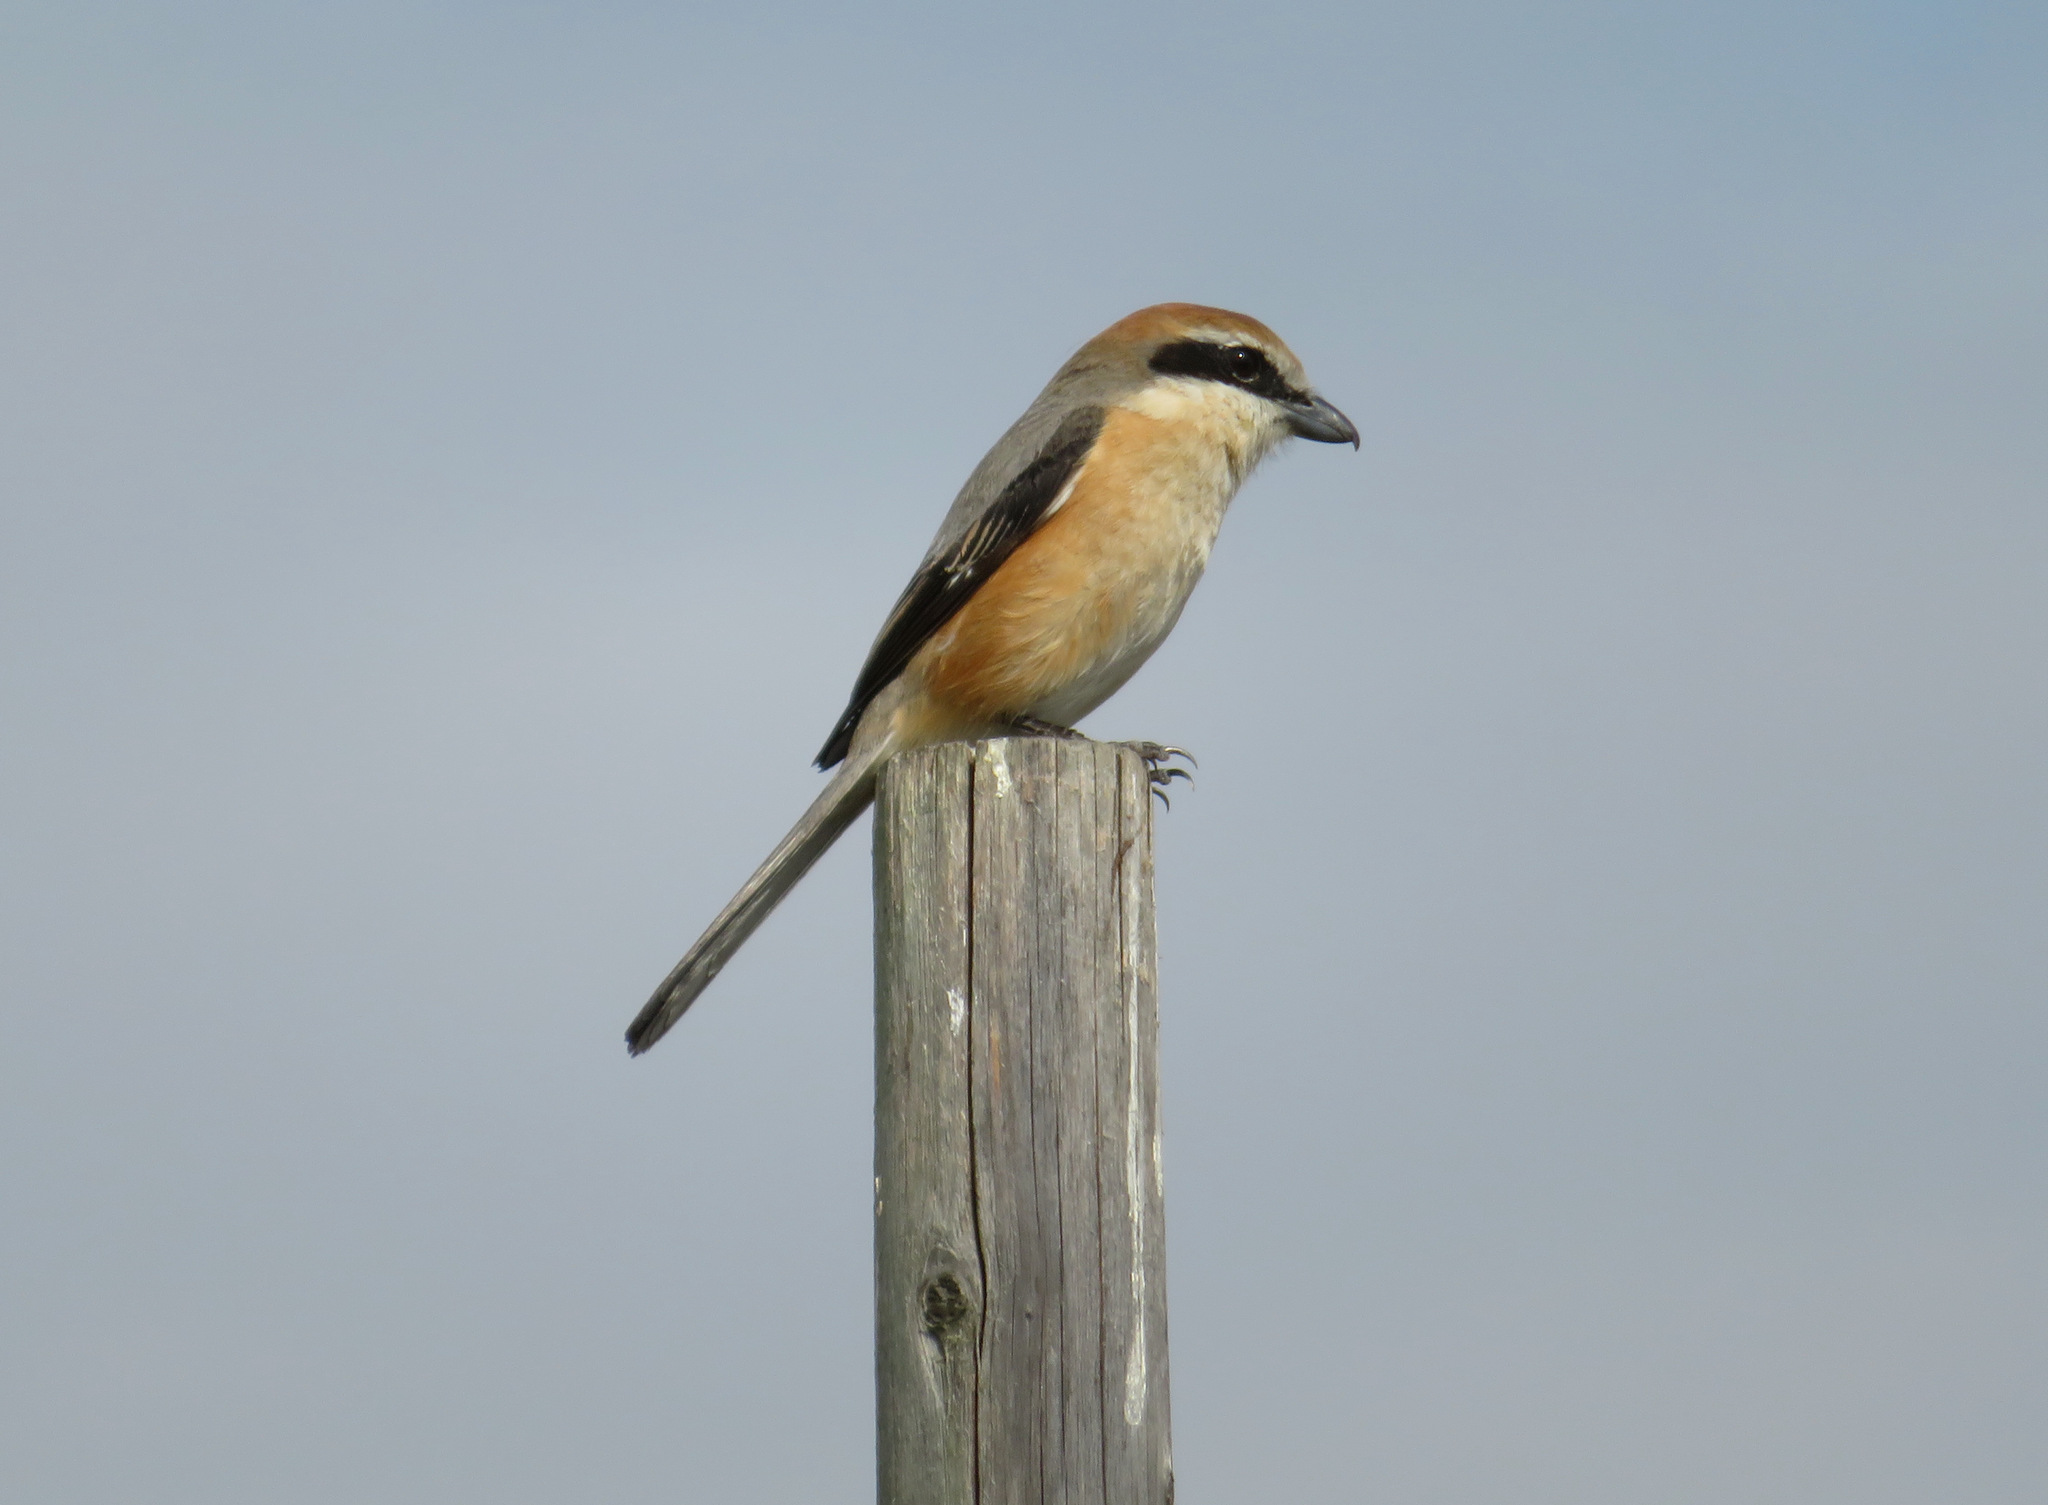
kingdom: Animalia
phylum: Chordata
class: Aves
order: Passeriformes
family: Laniidae
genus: Lanius
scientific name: Lanius bucephalus
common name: Bull-headed shrike
